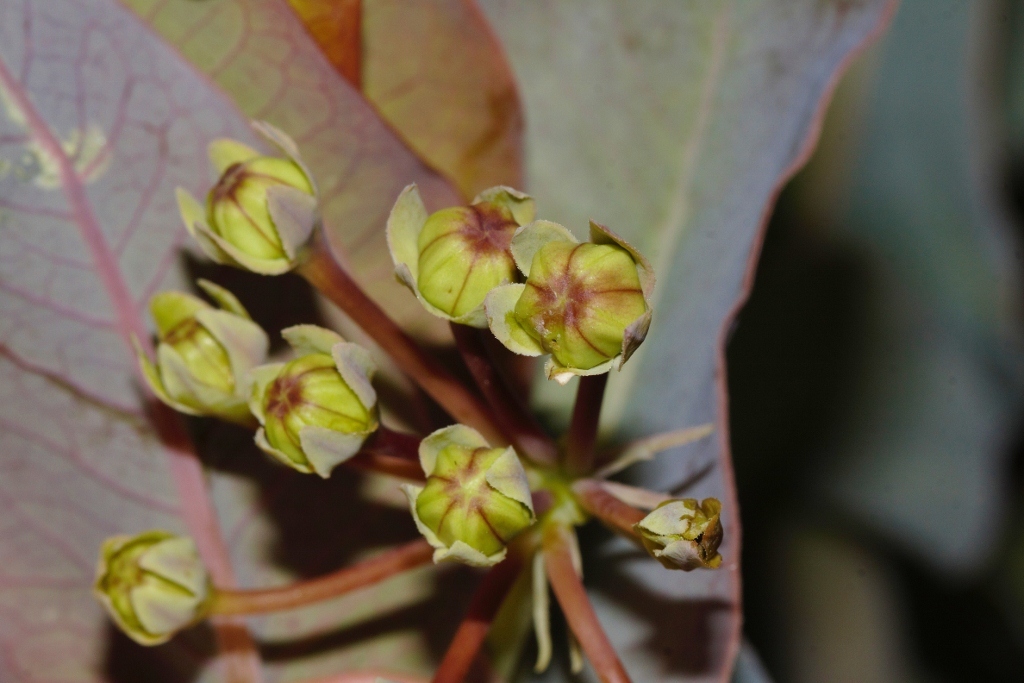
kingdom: Plantae
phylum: Tracheophyta
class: Magnoliopsida
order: Gentianales
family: Apocynaceae
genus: Gomphocarpus
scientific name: Gomphocarpus glaucophyllus
